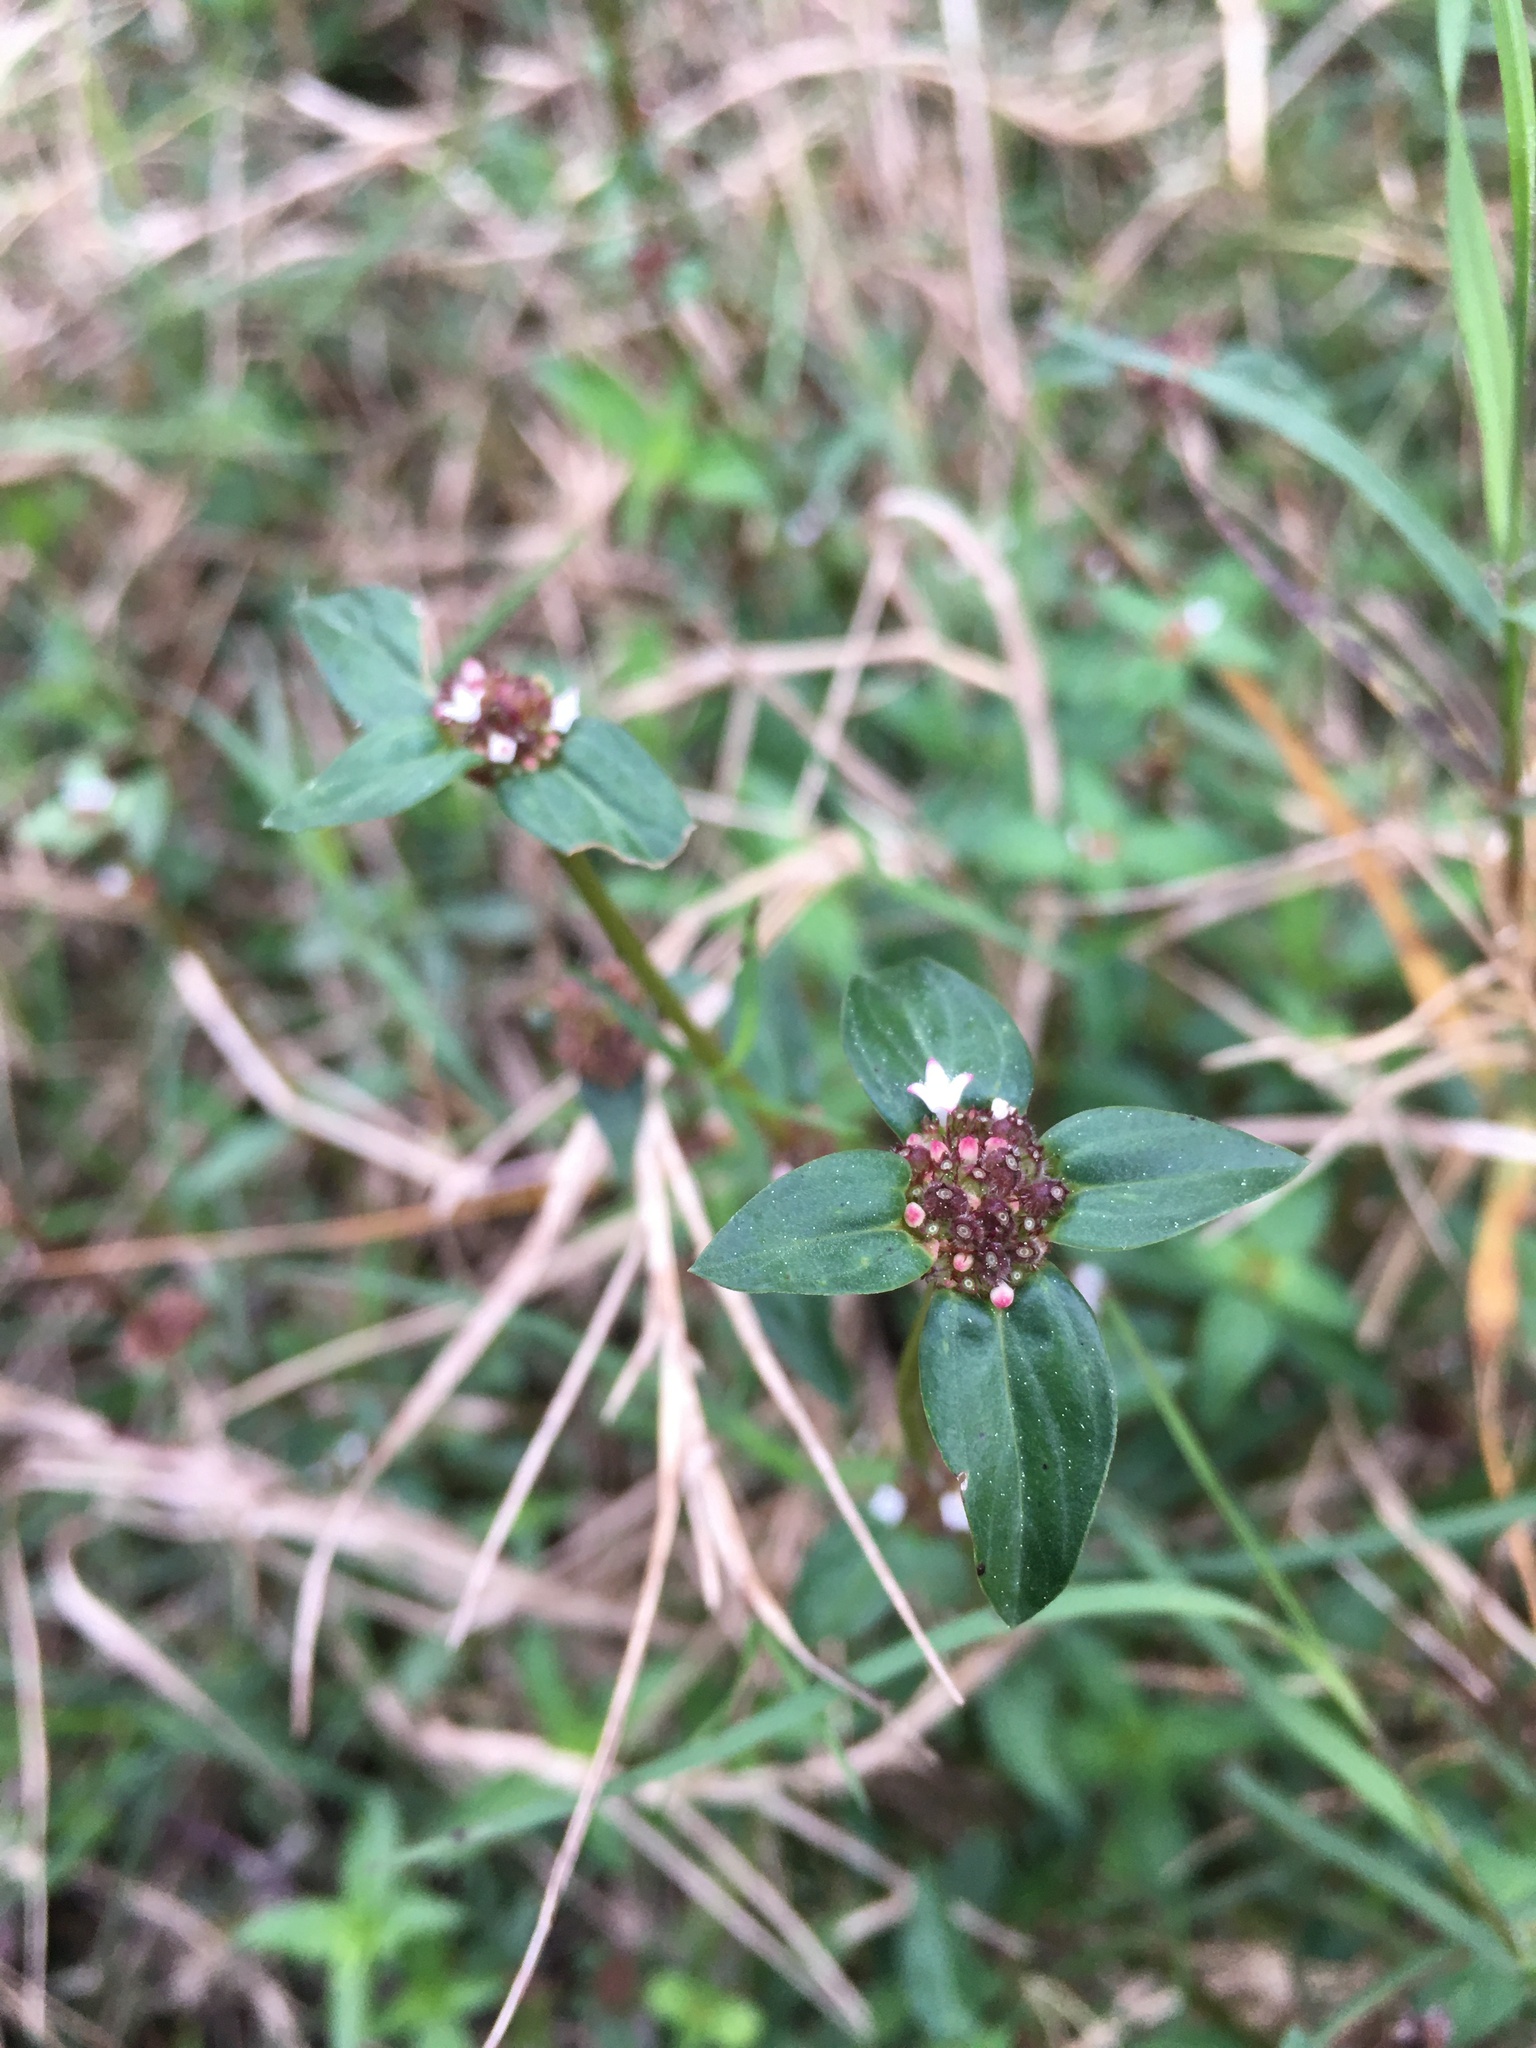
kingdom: Plantae
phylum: Tracheophyta
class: Magnoliopsida
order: Gentianales
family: Rubiaceae
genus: Spermacoce
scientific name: Spermacoce remota
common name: Woodland false buttonweed
